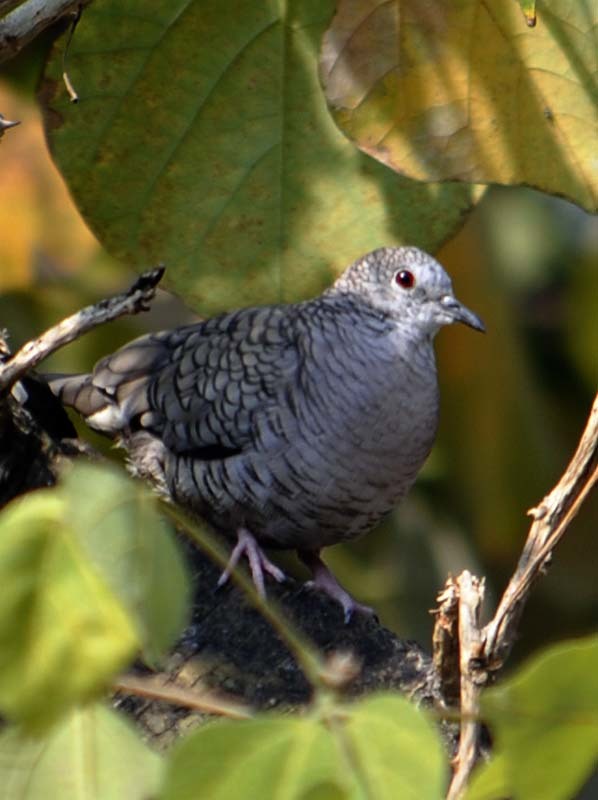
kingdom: Animalia
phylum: Chordata
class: Aves
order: Columbiformes
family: Columbidae
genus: Columbina
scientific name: Columbina inca
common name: Inca dove
